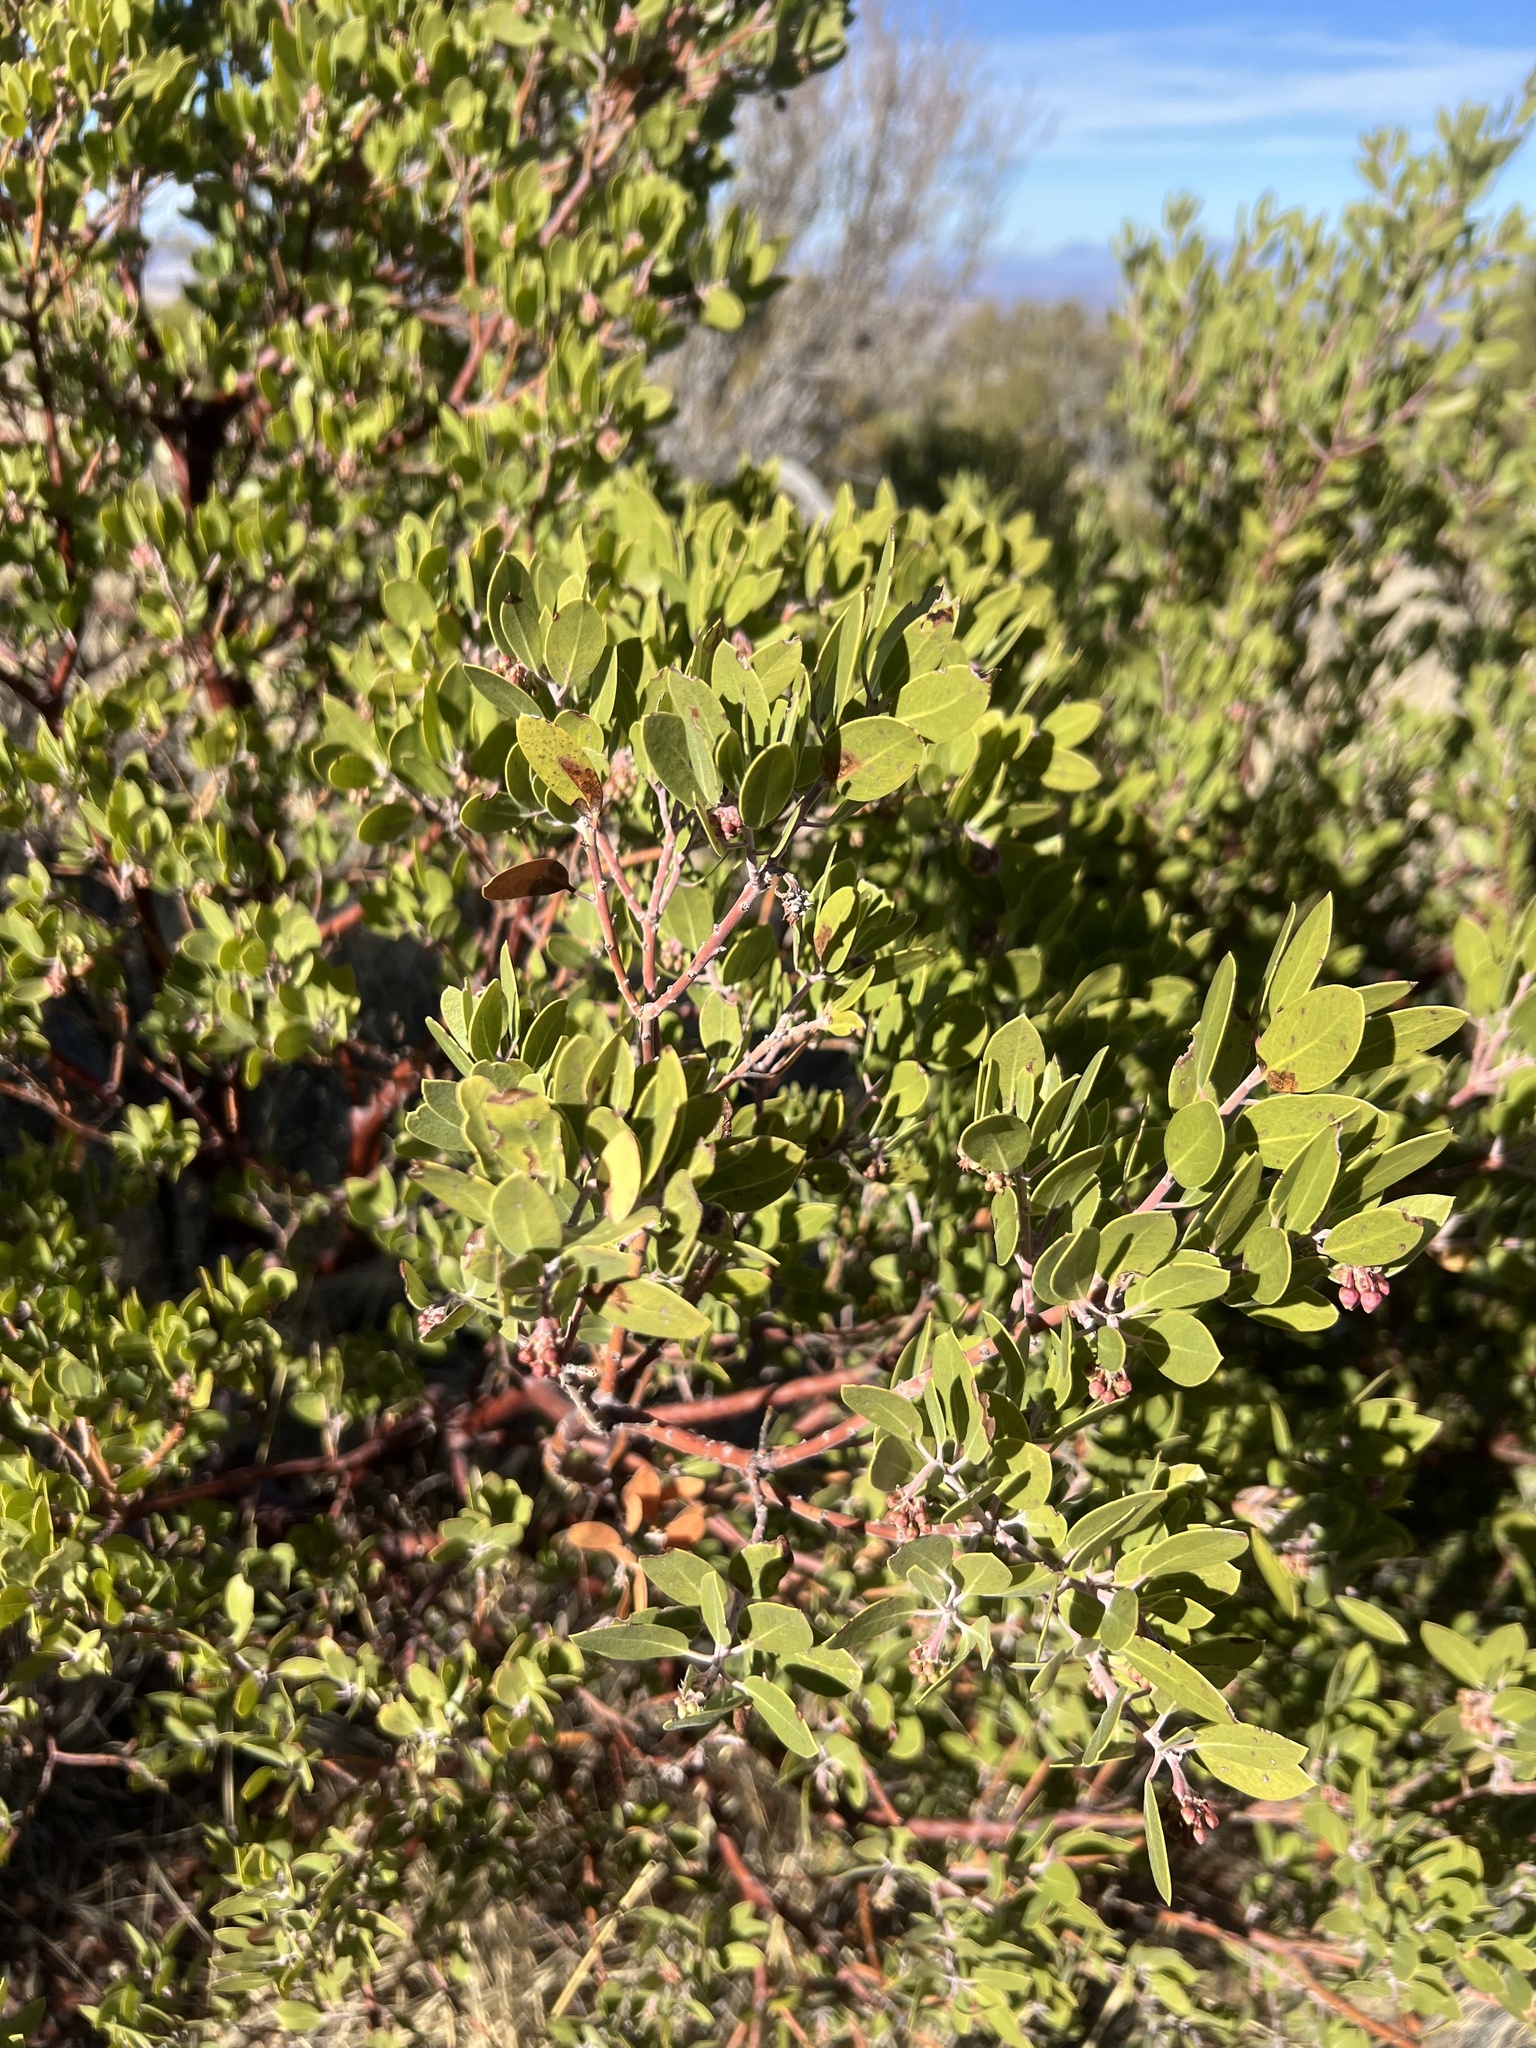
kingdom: Plantae
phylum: Tracheophyta
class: Magnoliopsida
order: Ericales
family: Ericaceae
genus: Arctostaphylos
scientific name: Arctostaphylos pungens
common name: Mexican manzanita
